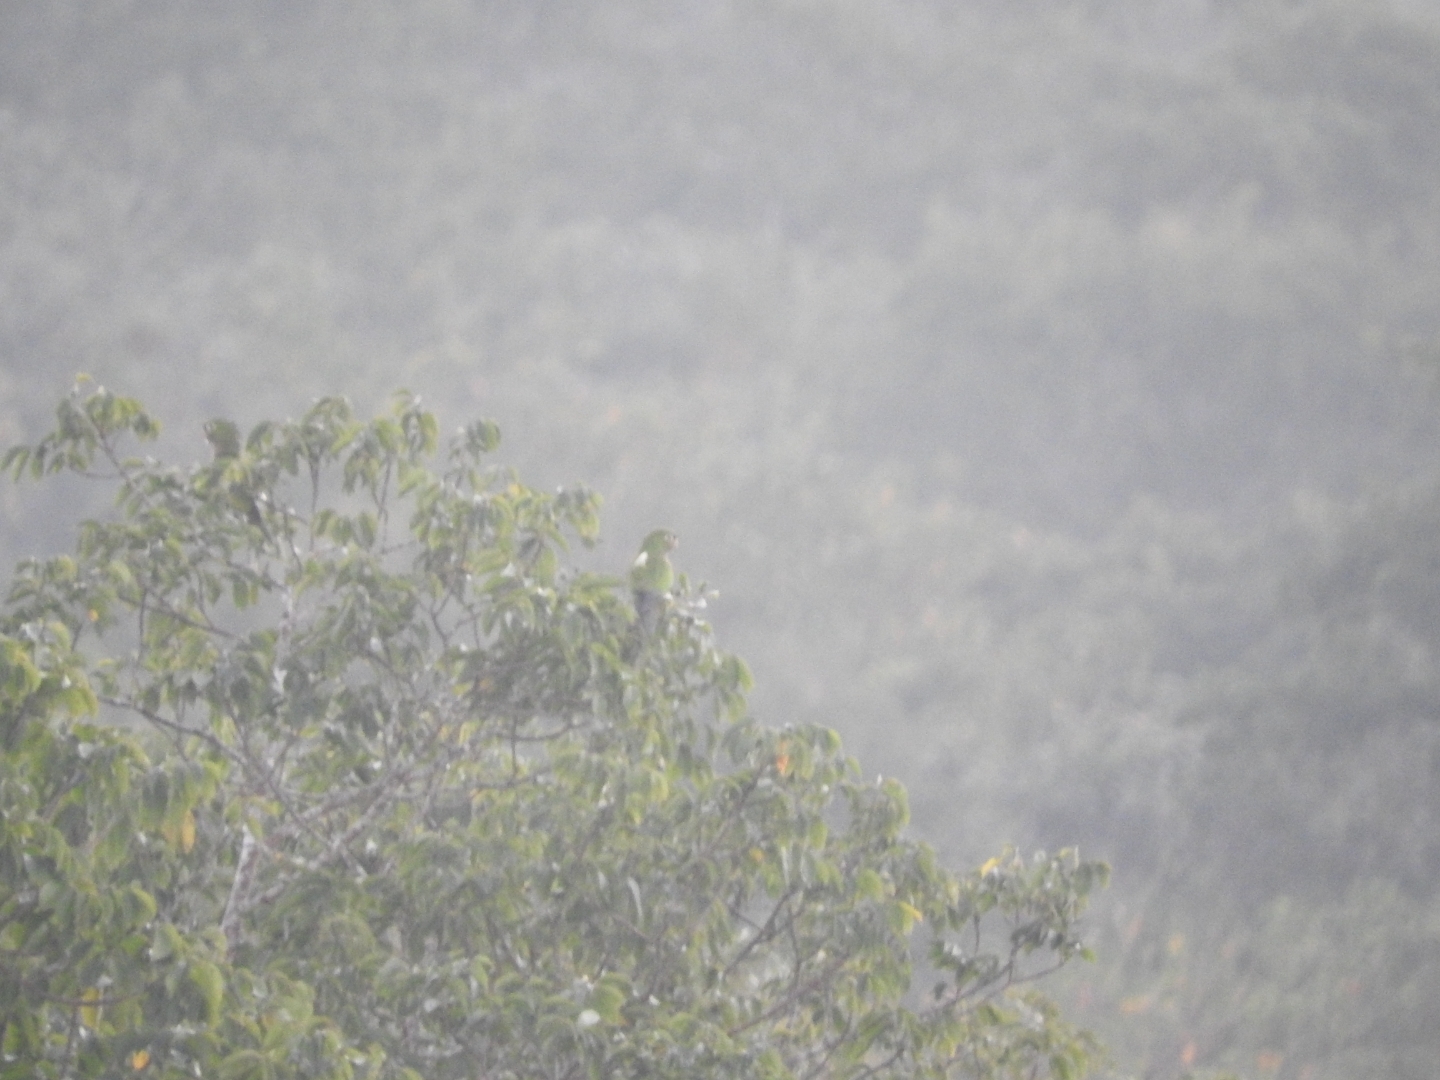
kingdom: Animalia
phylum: Chordata
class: Aves
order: Psittaciformes
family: Psittacidae
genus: Aratinga
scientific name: Aratinga nana
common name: Olive-throated parakeet
